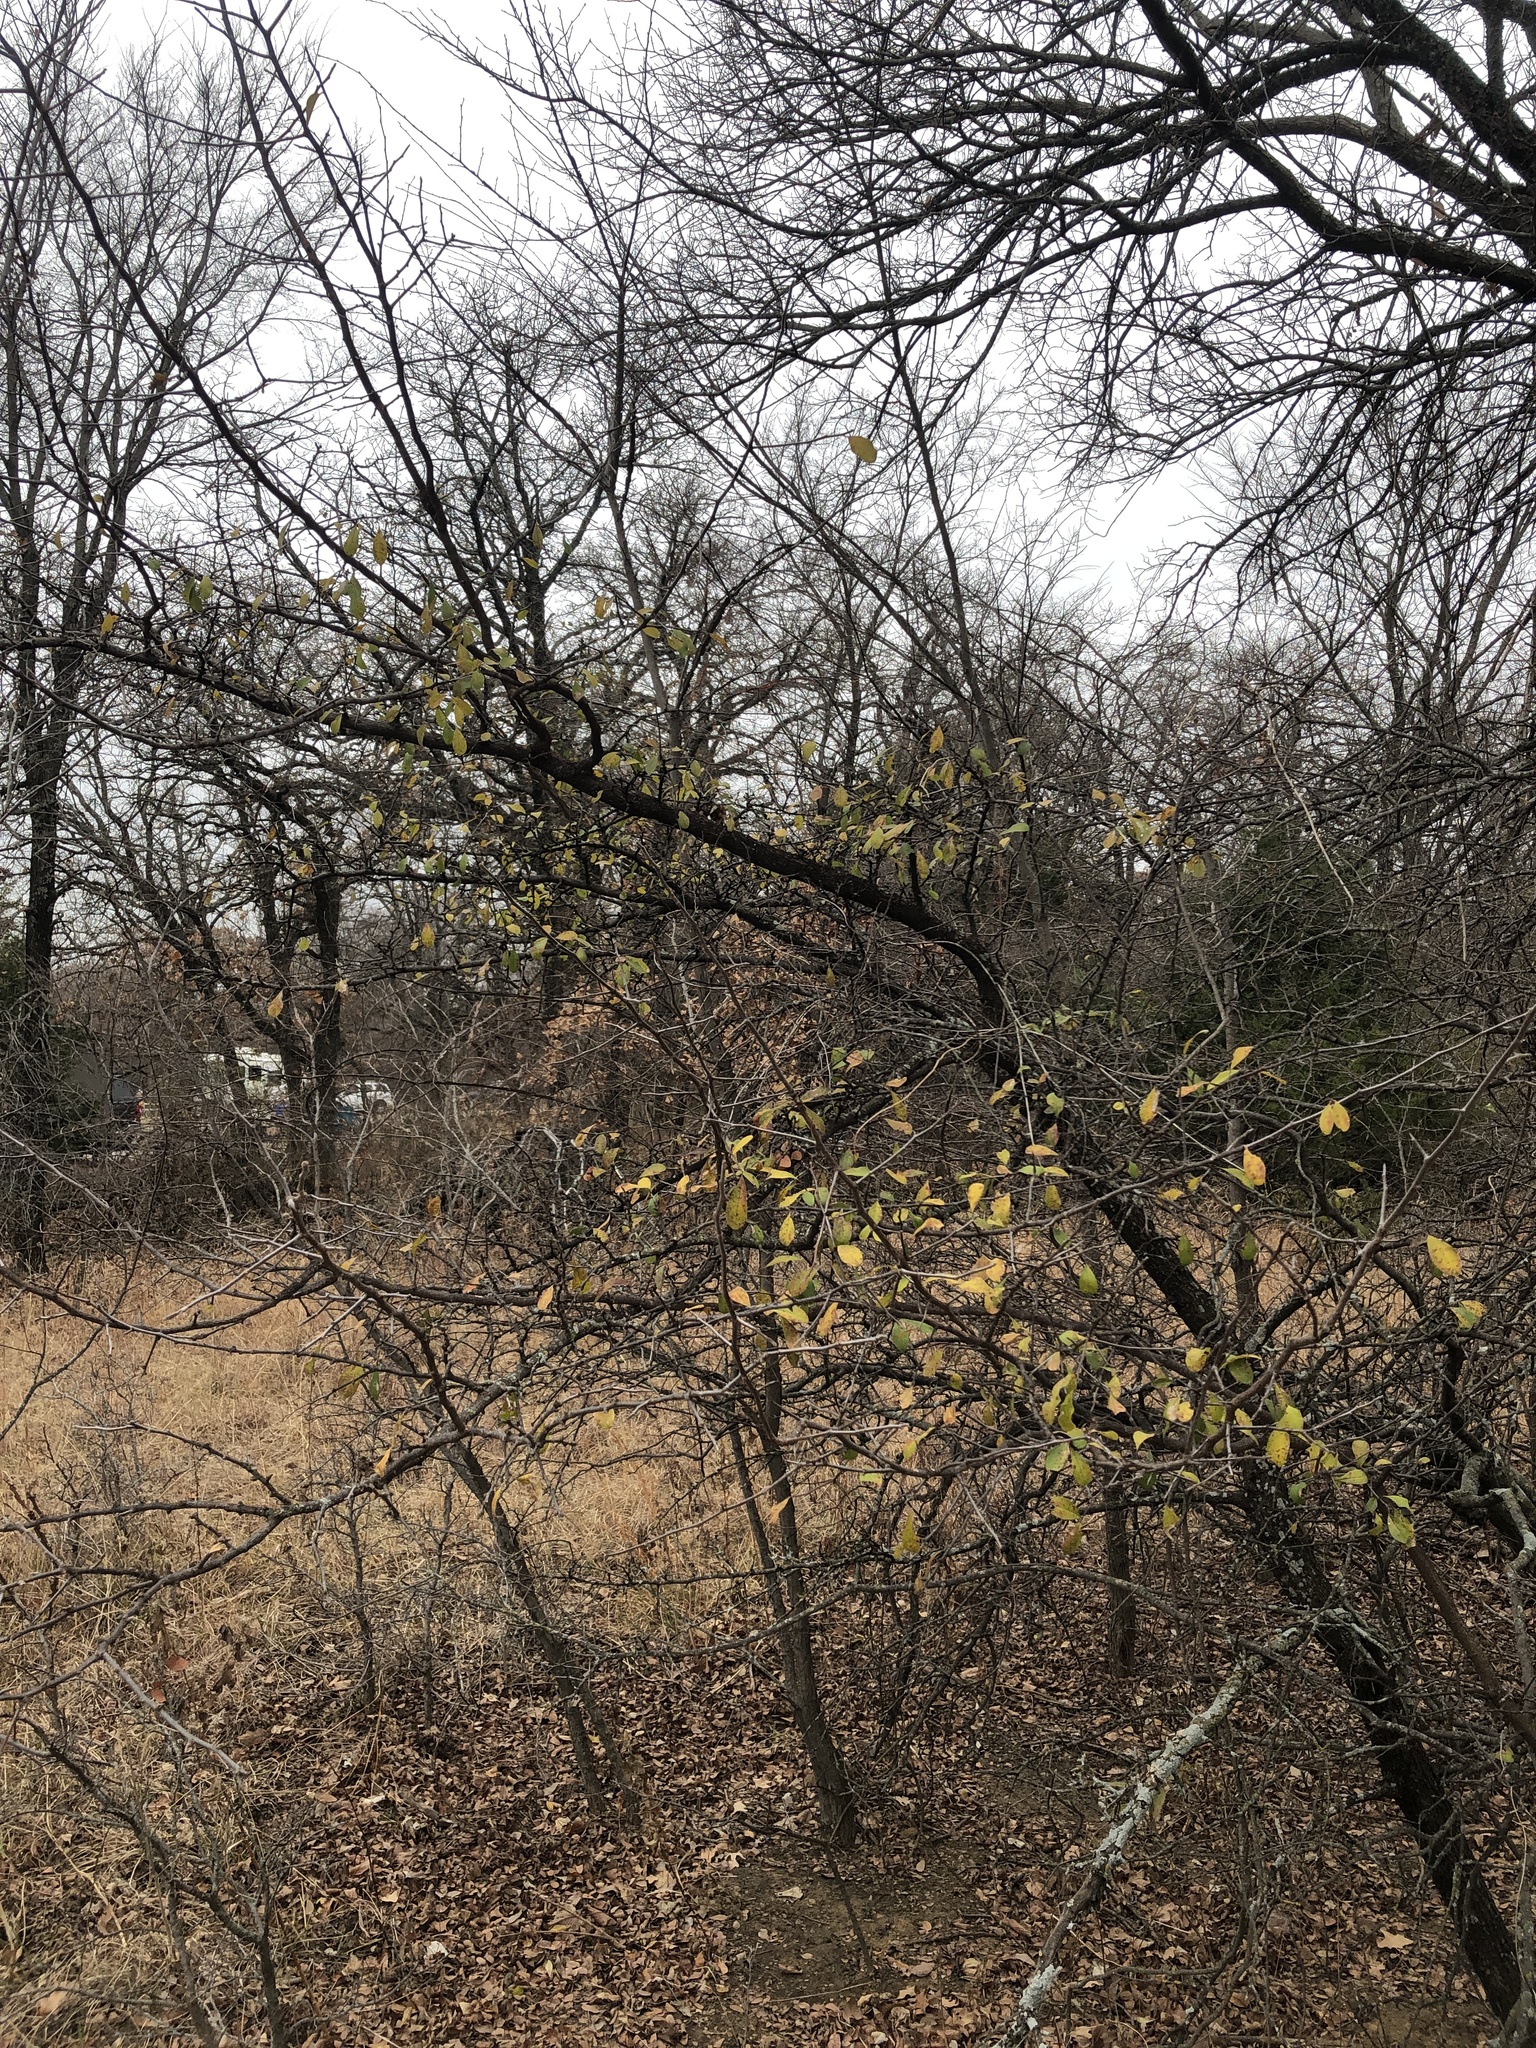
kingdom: Plantae
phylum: Tracheophyta
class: Magnoliopsida
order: Ericales
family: Sapotaceae
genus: Sideroxylon
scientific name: Sideroxylon lanuginosum
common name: Chittamwood
